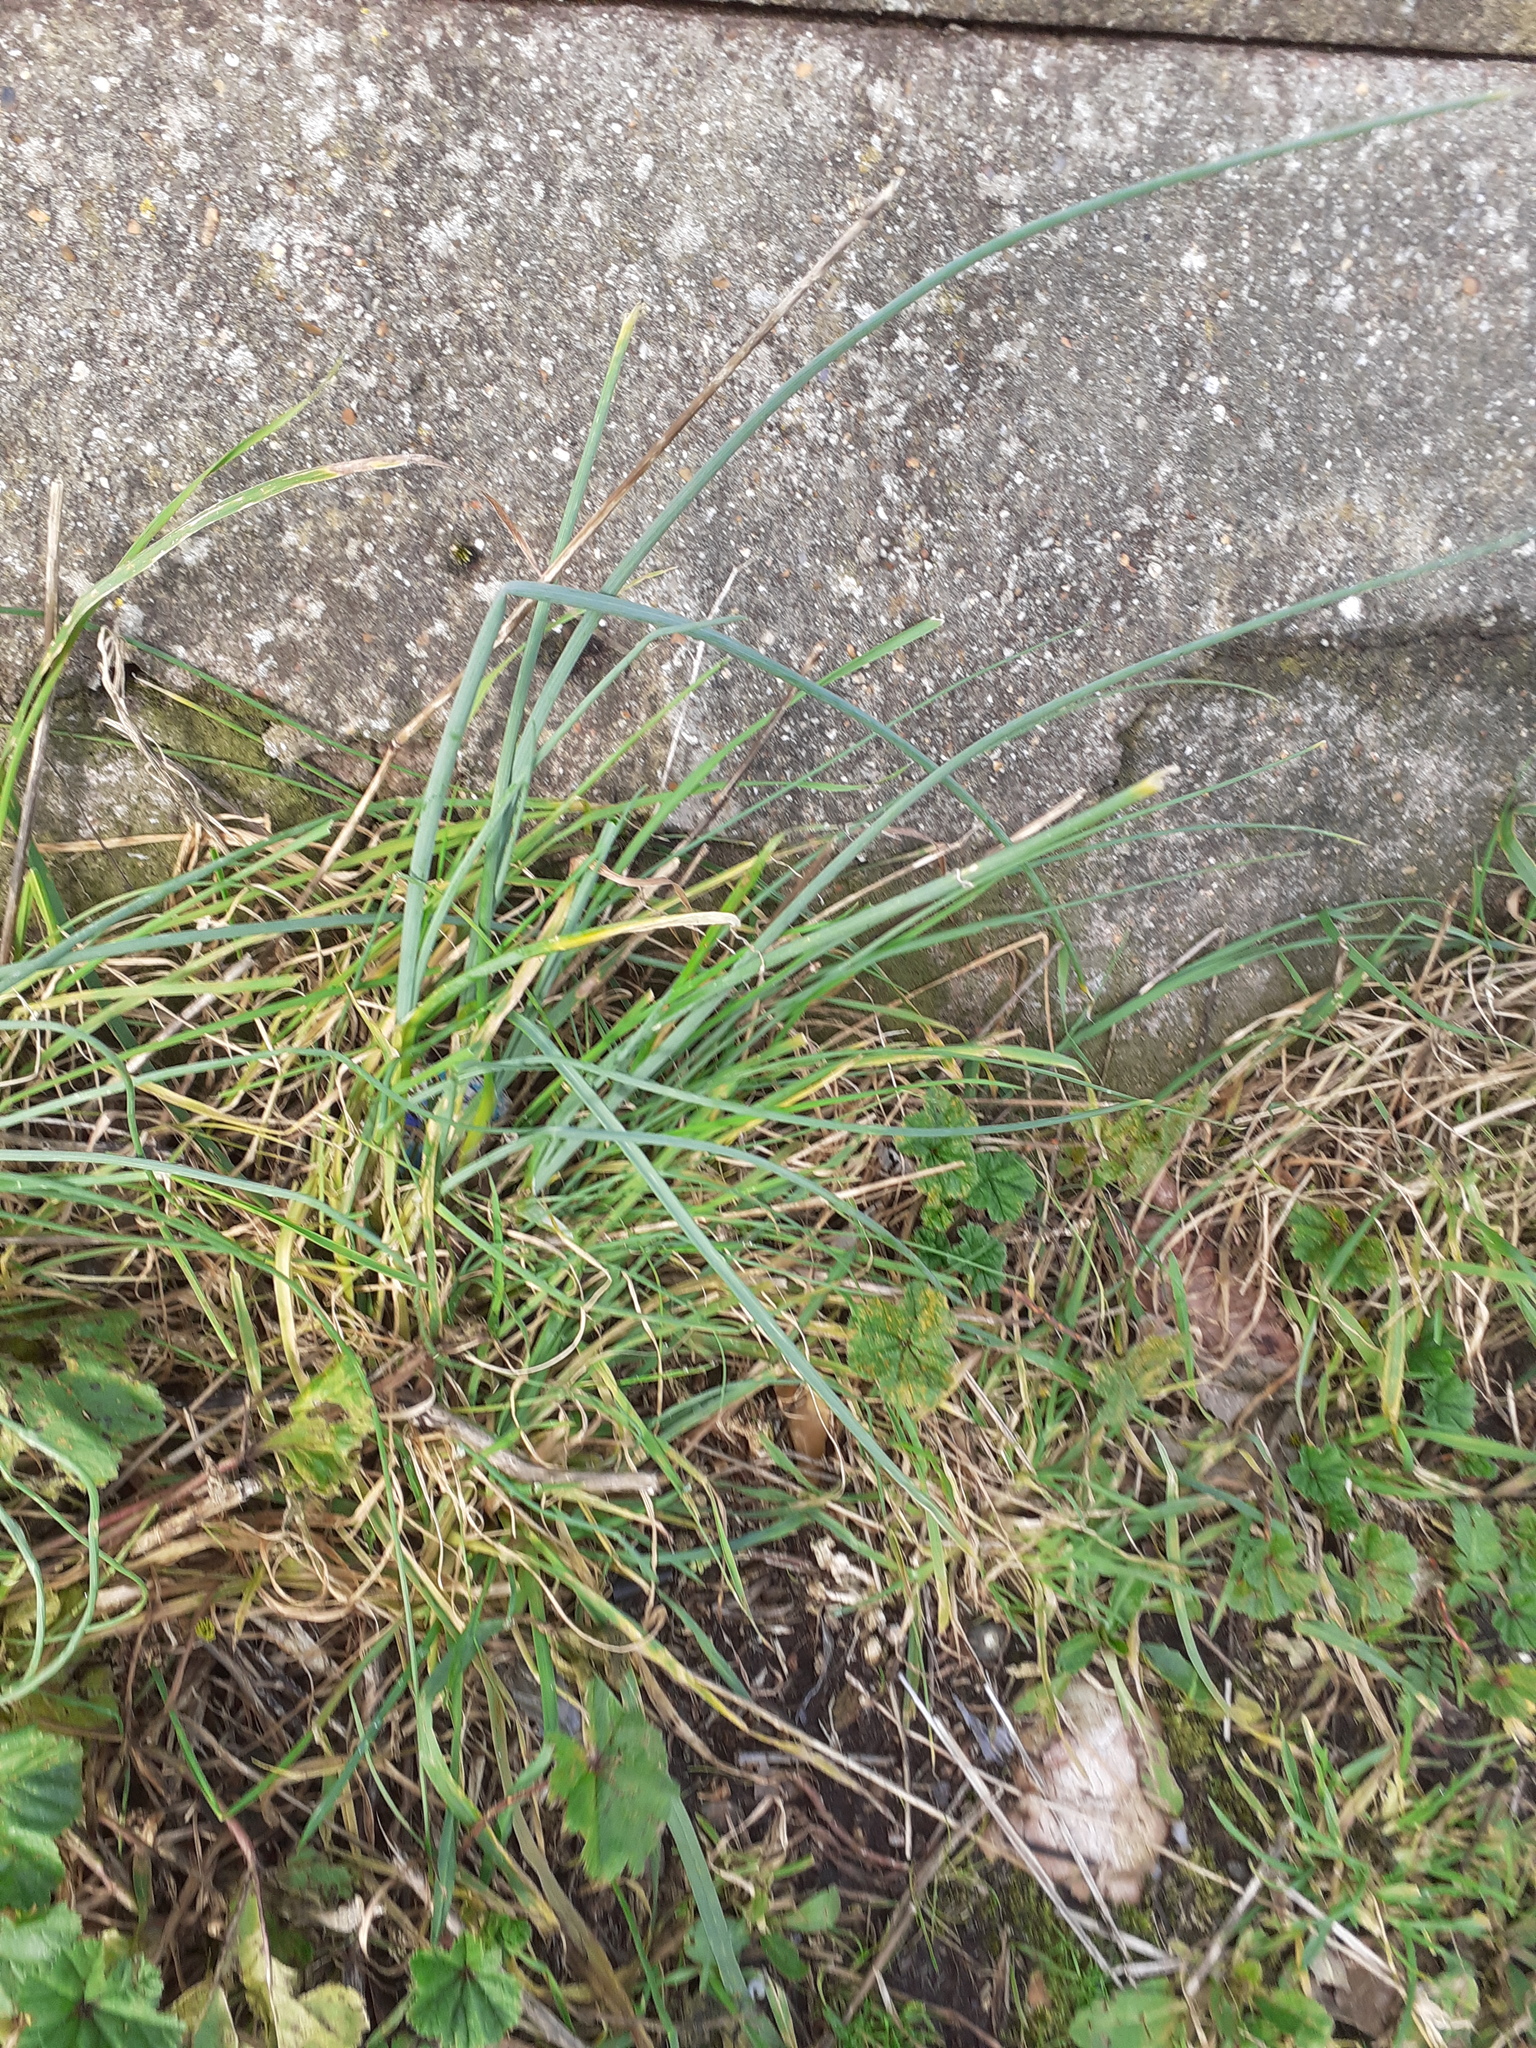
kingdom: Plantae
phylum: Tracheophyta
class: Liliopsida
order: Asparagales
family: Amaryllidaceae
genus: Allium
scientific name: Allium vineale
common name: Crow garlic
